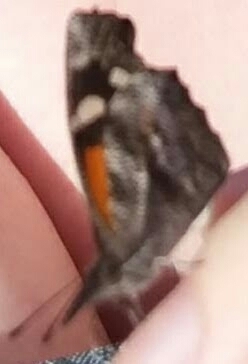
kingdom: Animalia
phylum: Arthropoda
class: Insecta
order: Lepidoptera
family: Nymphalidae
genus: Libytheana
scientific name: Libytheana carinenta
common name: American snout
